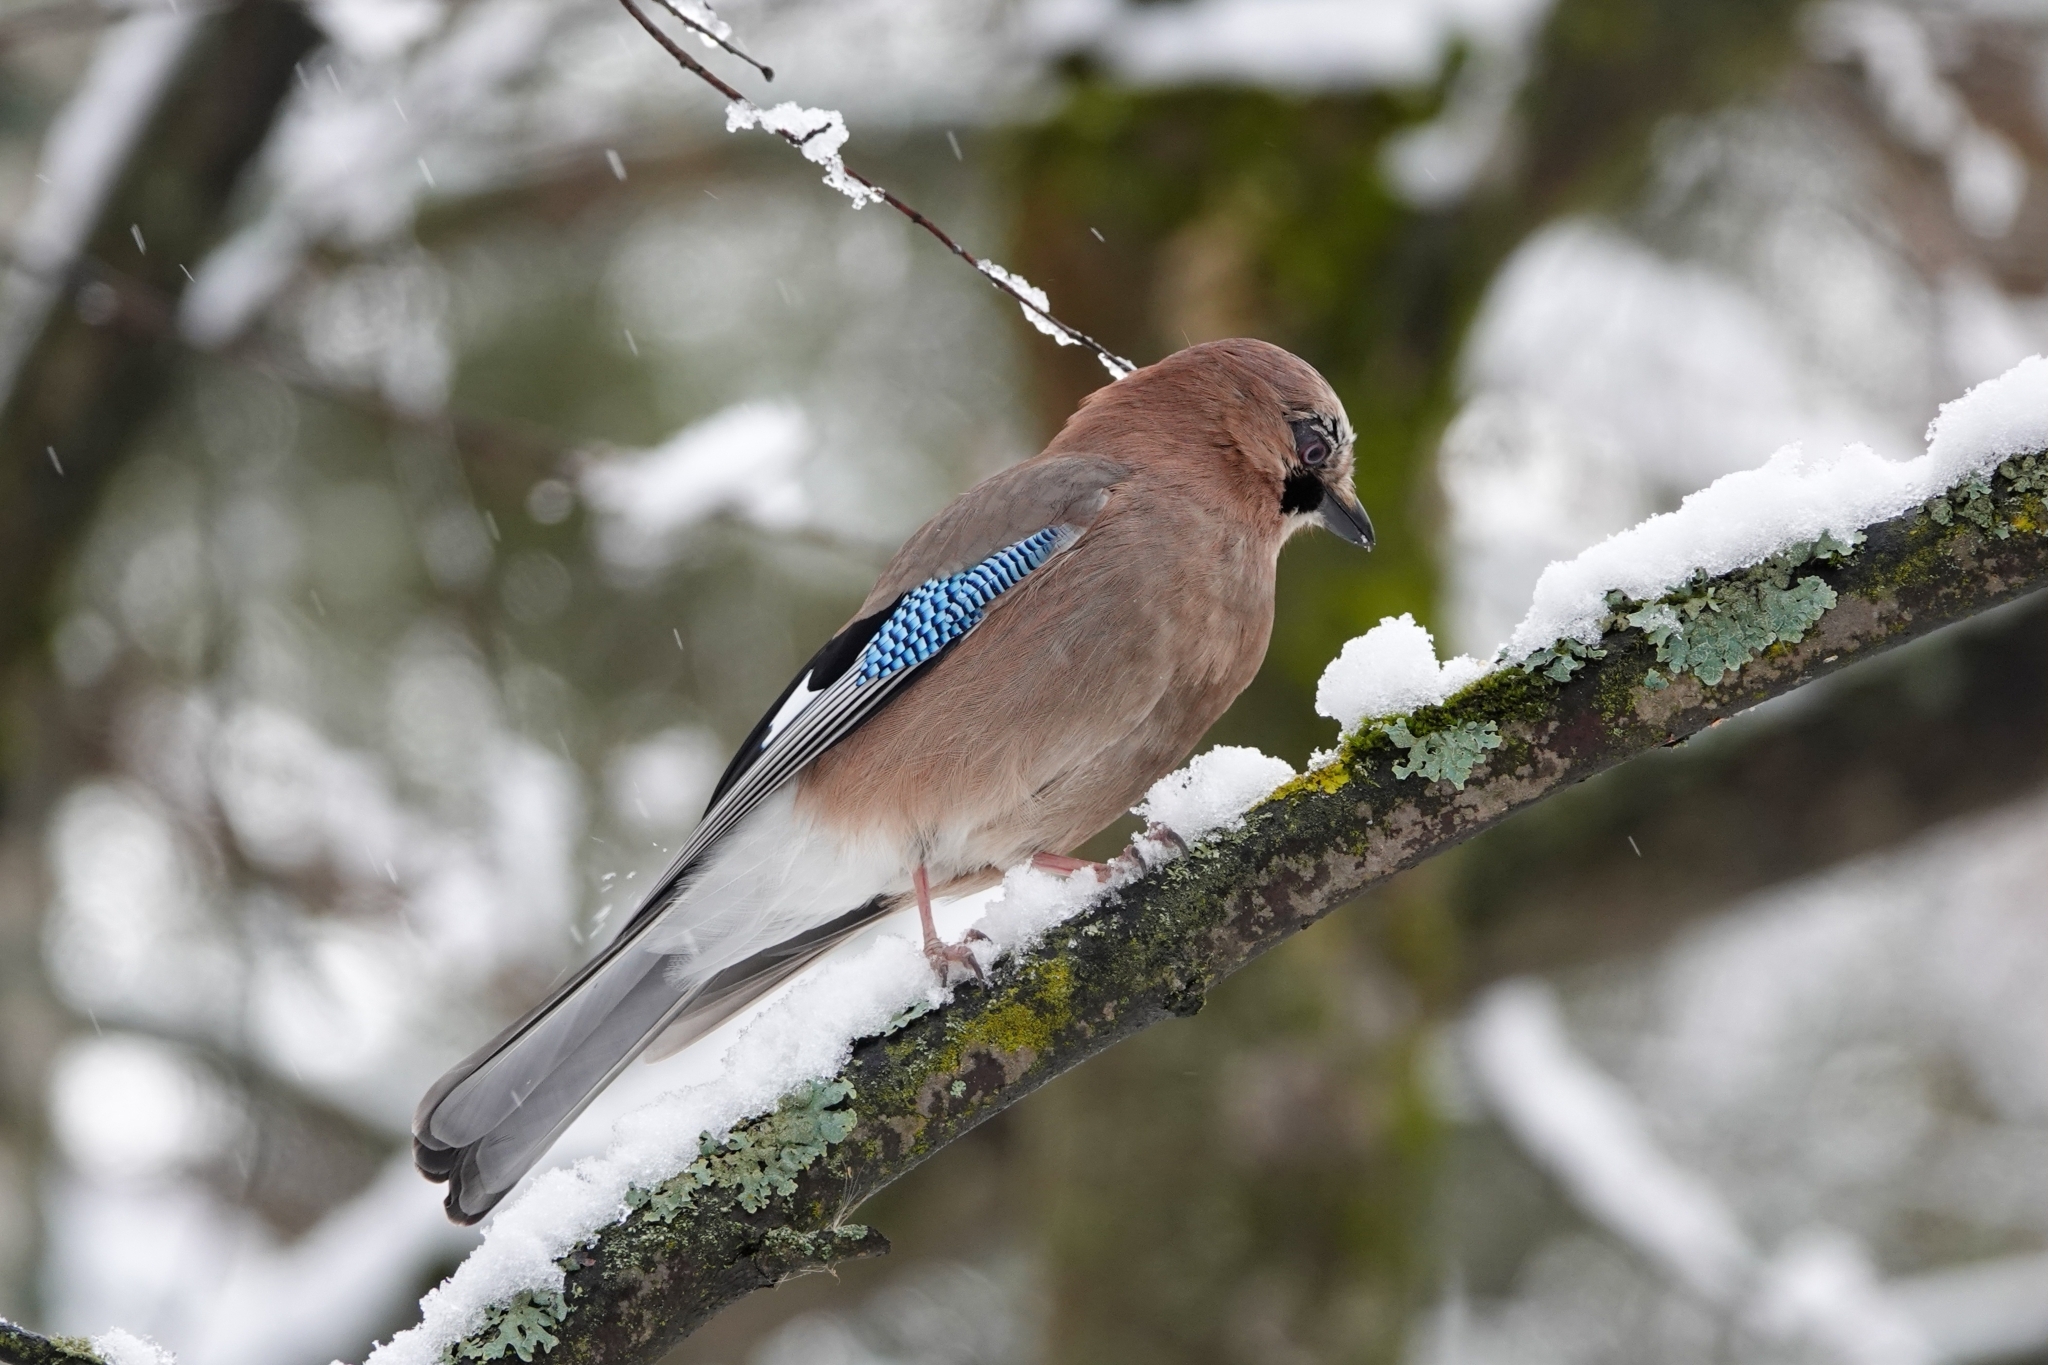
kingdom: Animalia
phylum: Chordata
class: Aves
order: Passeriformes
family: Corvidae
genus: Garrulus
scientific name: Garrulus glandarius
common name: Eurasian jay
